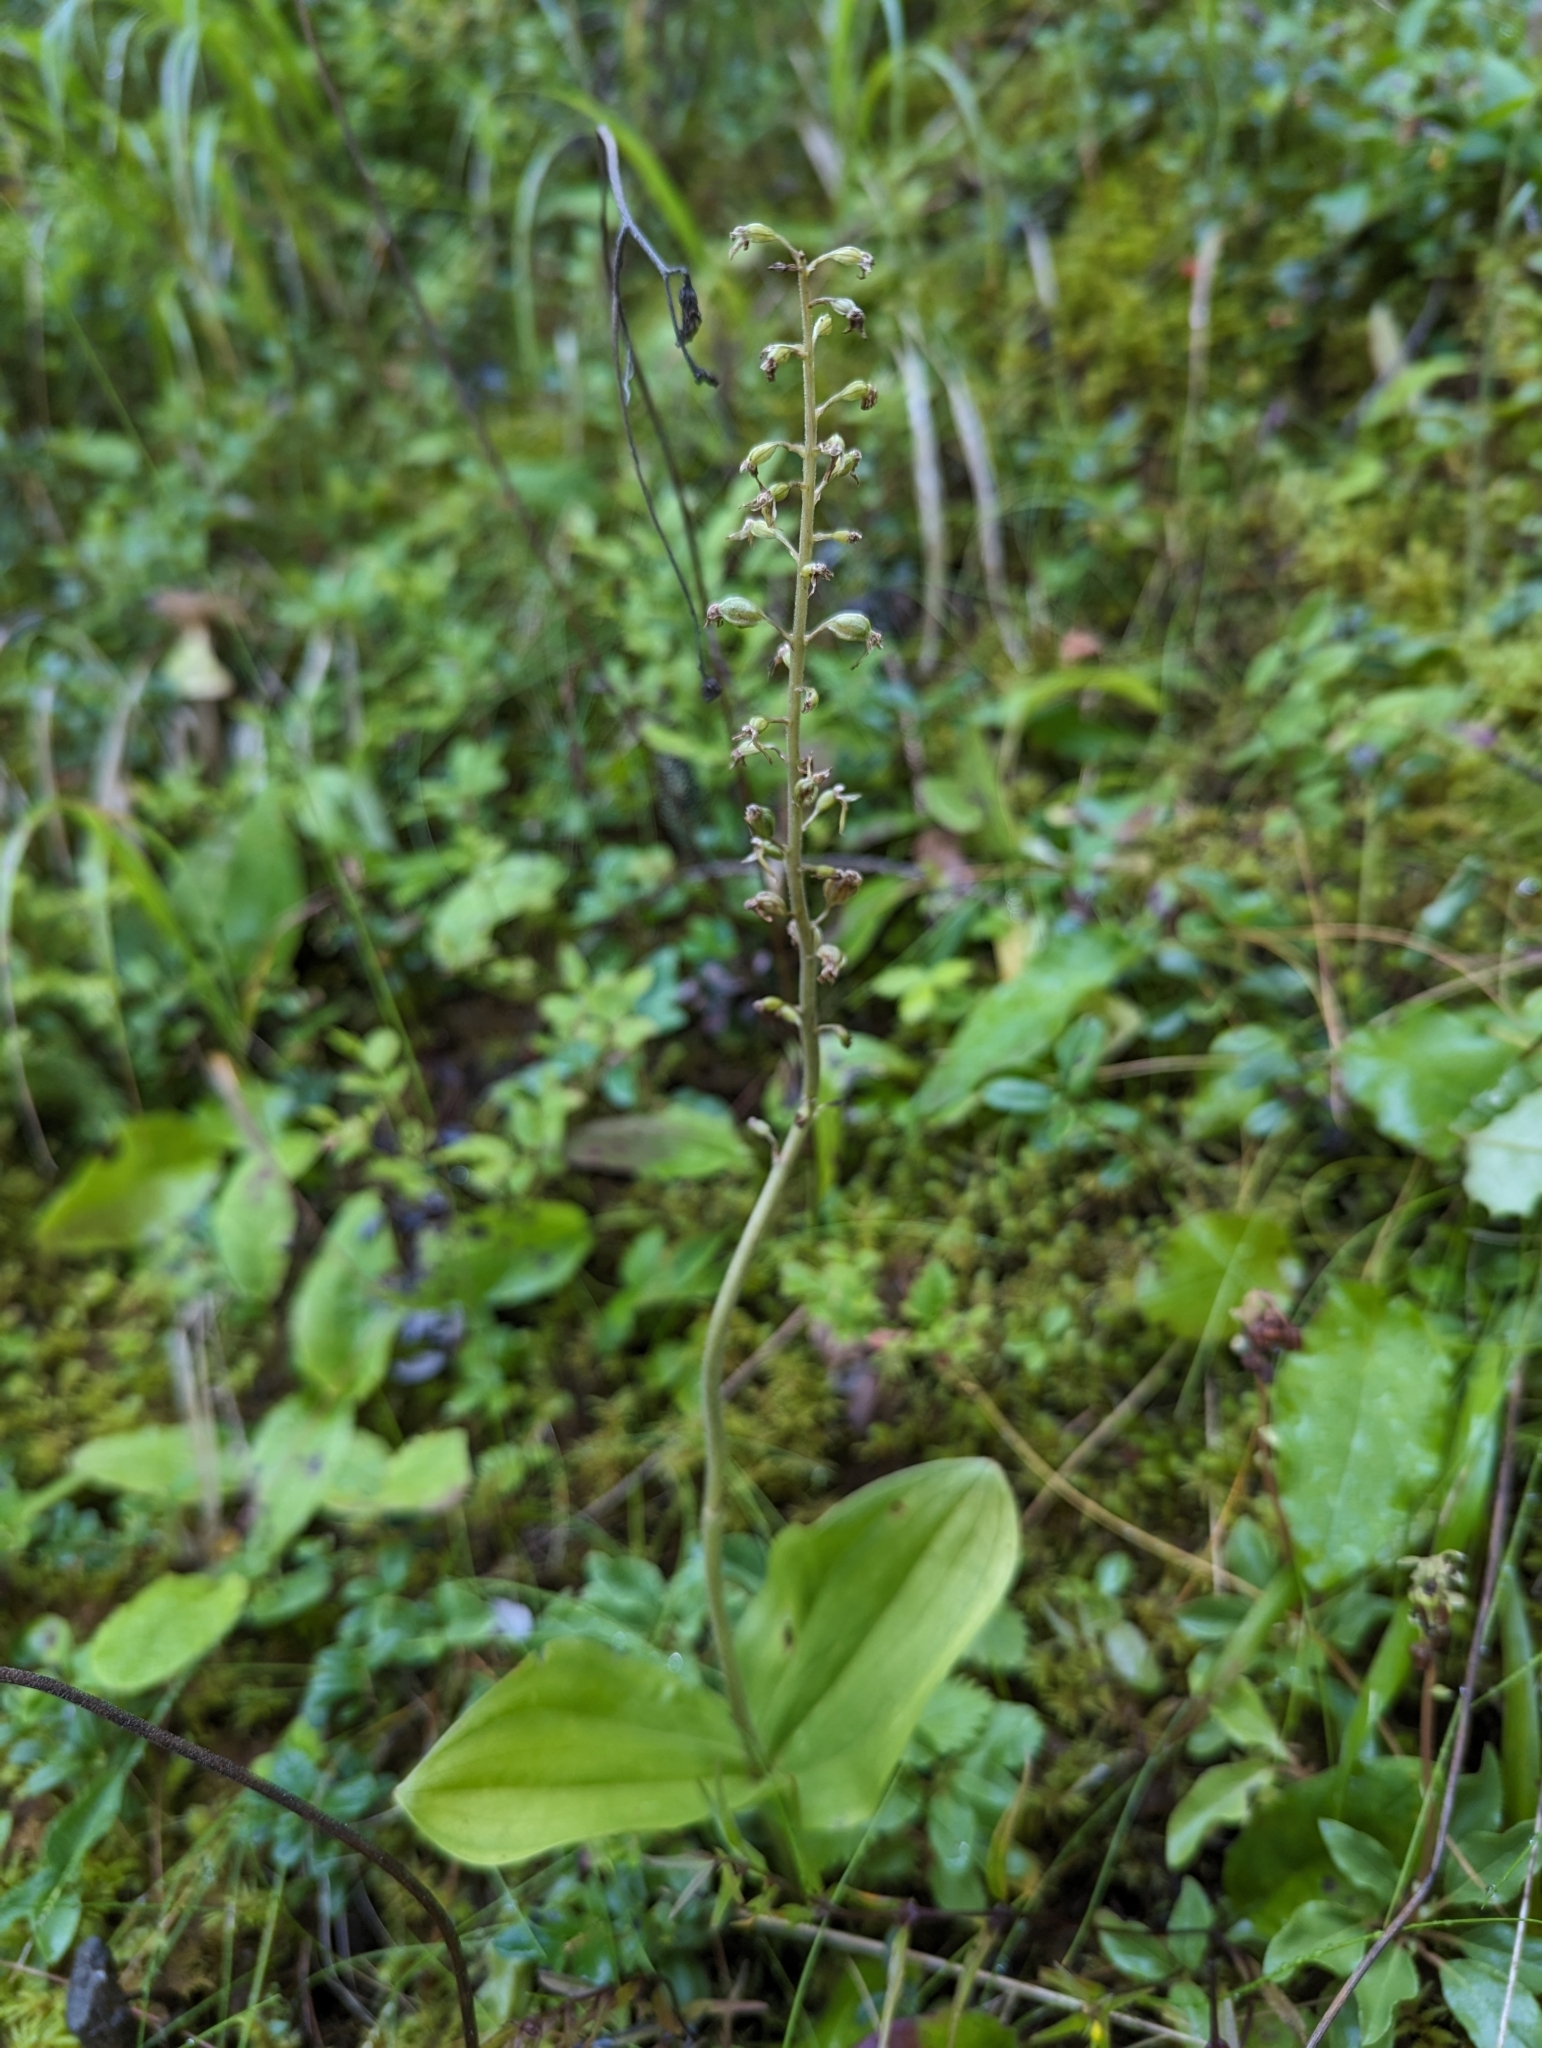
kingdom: Plantae
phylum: Tracheophyta
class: Liliopsida
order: Asparagales
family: Orchidaceae
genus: Neottia
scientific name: Neottia ovata
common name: Common twayblade
